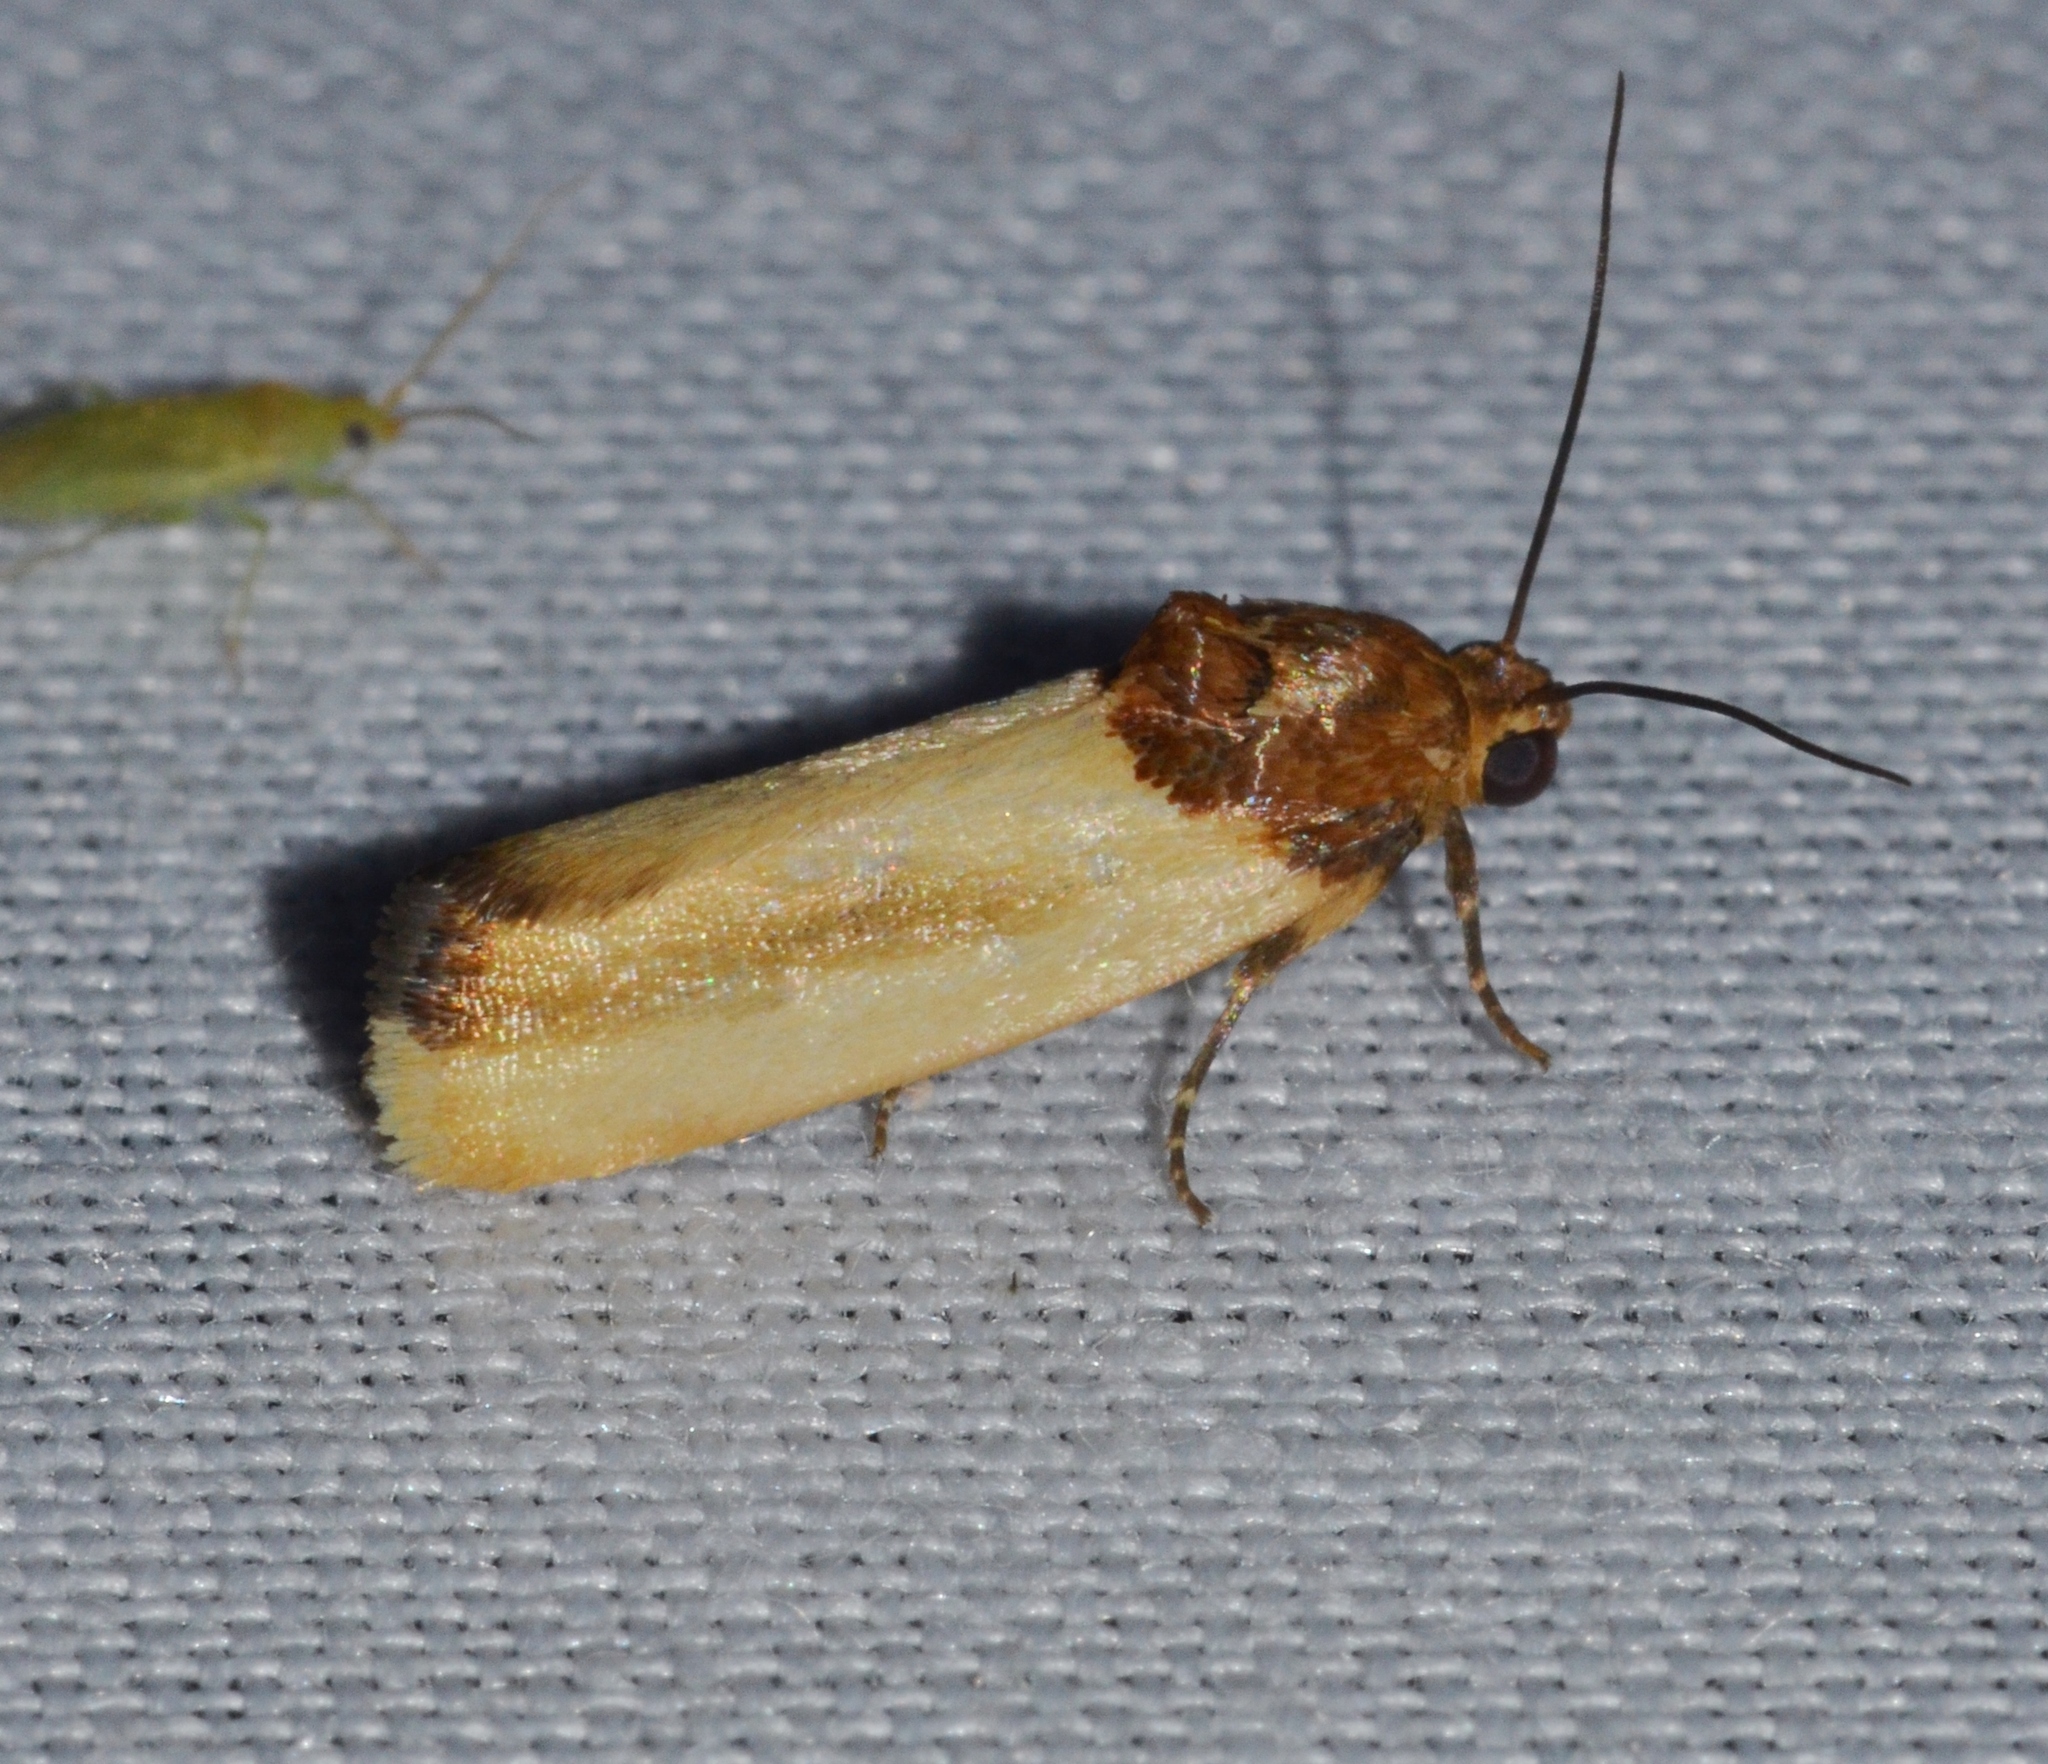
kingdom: Animalia
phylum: Arthropoda
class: Insecta
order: Lepidoptera
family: Noctuidae
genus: Spragueia
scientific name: Spragueia apicalis
